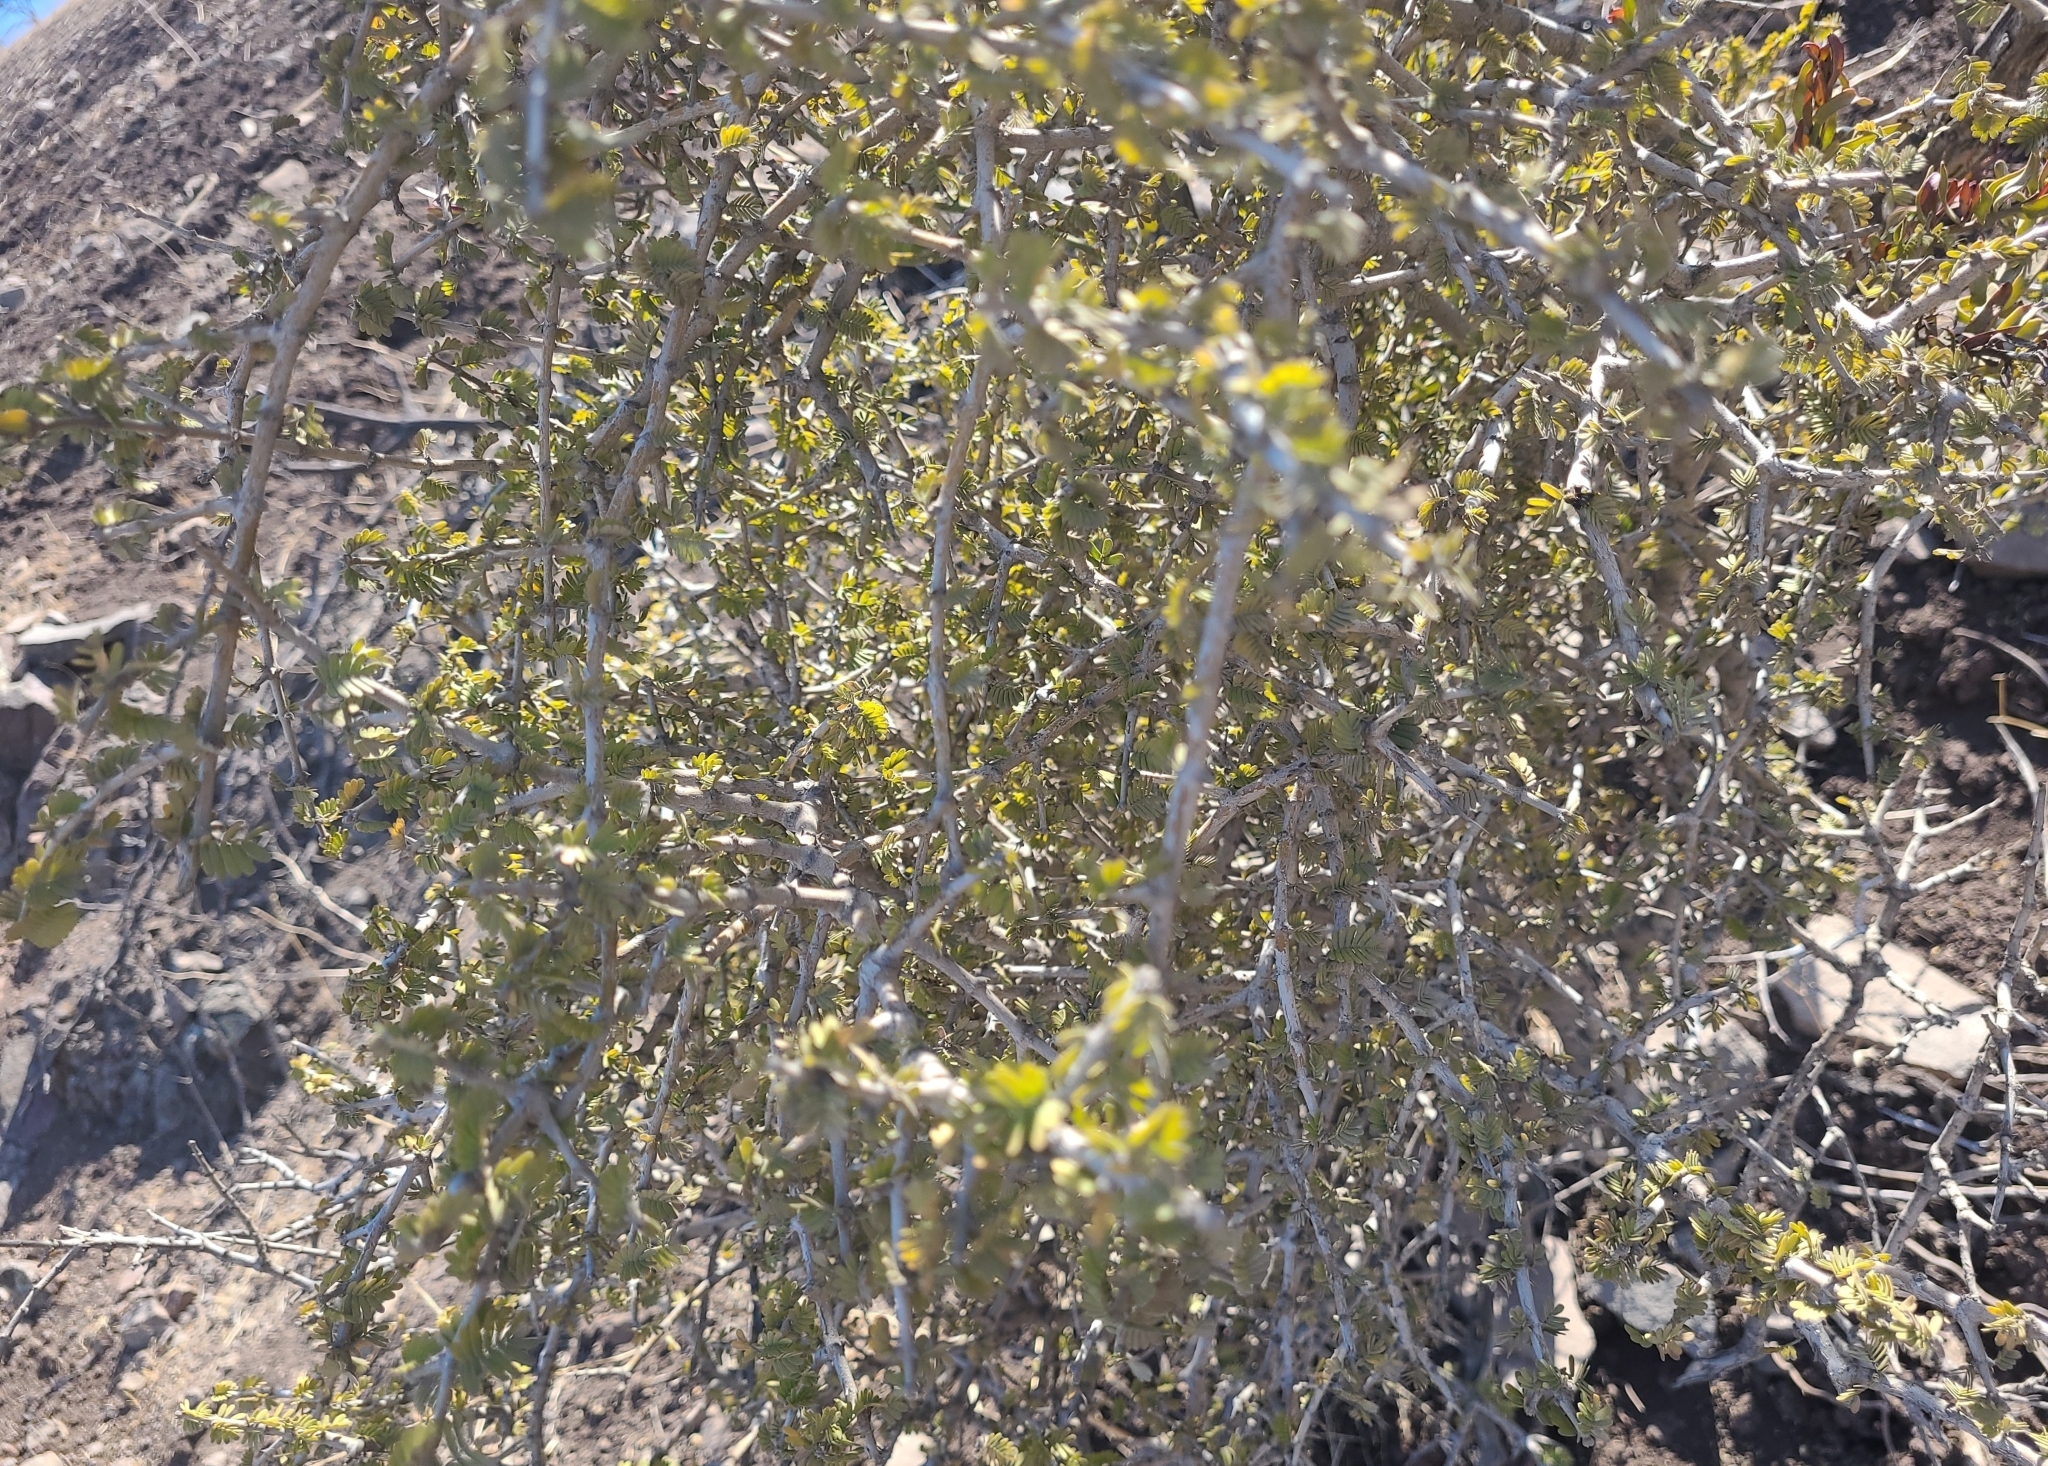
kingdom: Plantae
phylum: Tracheophyta
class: Magnoliopsida
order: Zygophyllales
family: Zygophyllaceae
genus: Porlieria
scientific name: Porlieria chilensis
